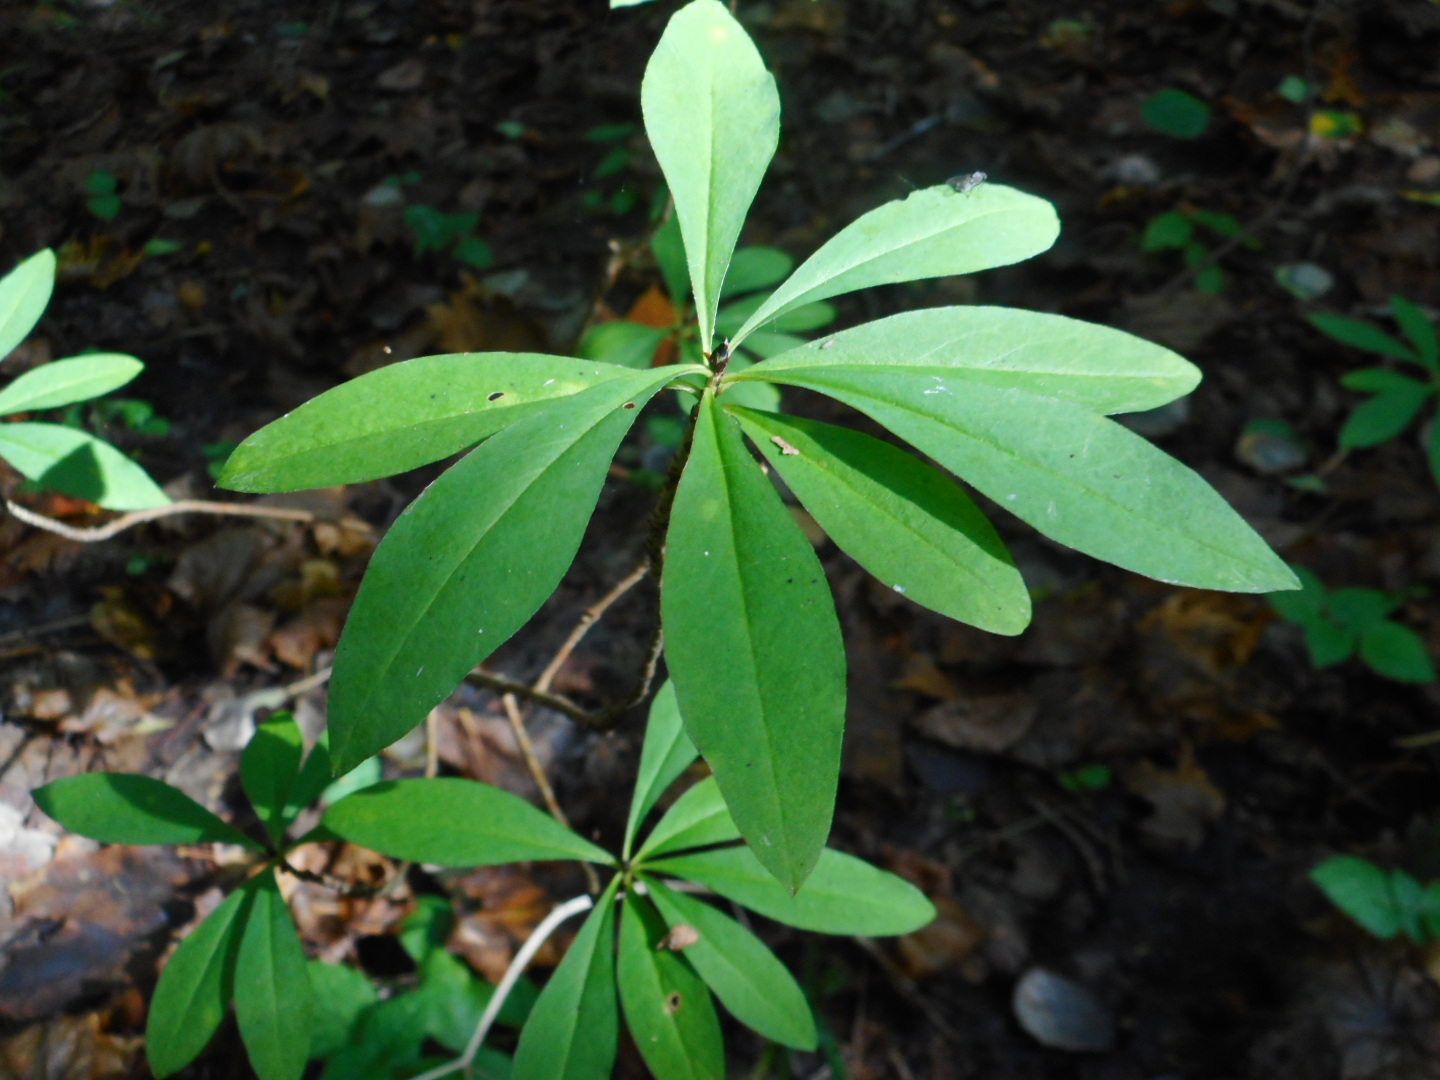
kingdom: Plantae
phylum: Tracheophyta
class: Magnoliopsida
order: Malvales
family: Thymelaeaceae
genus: Daphne
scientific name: Daphne mezereum
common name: Mezereon
